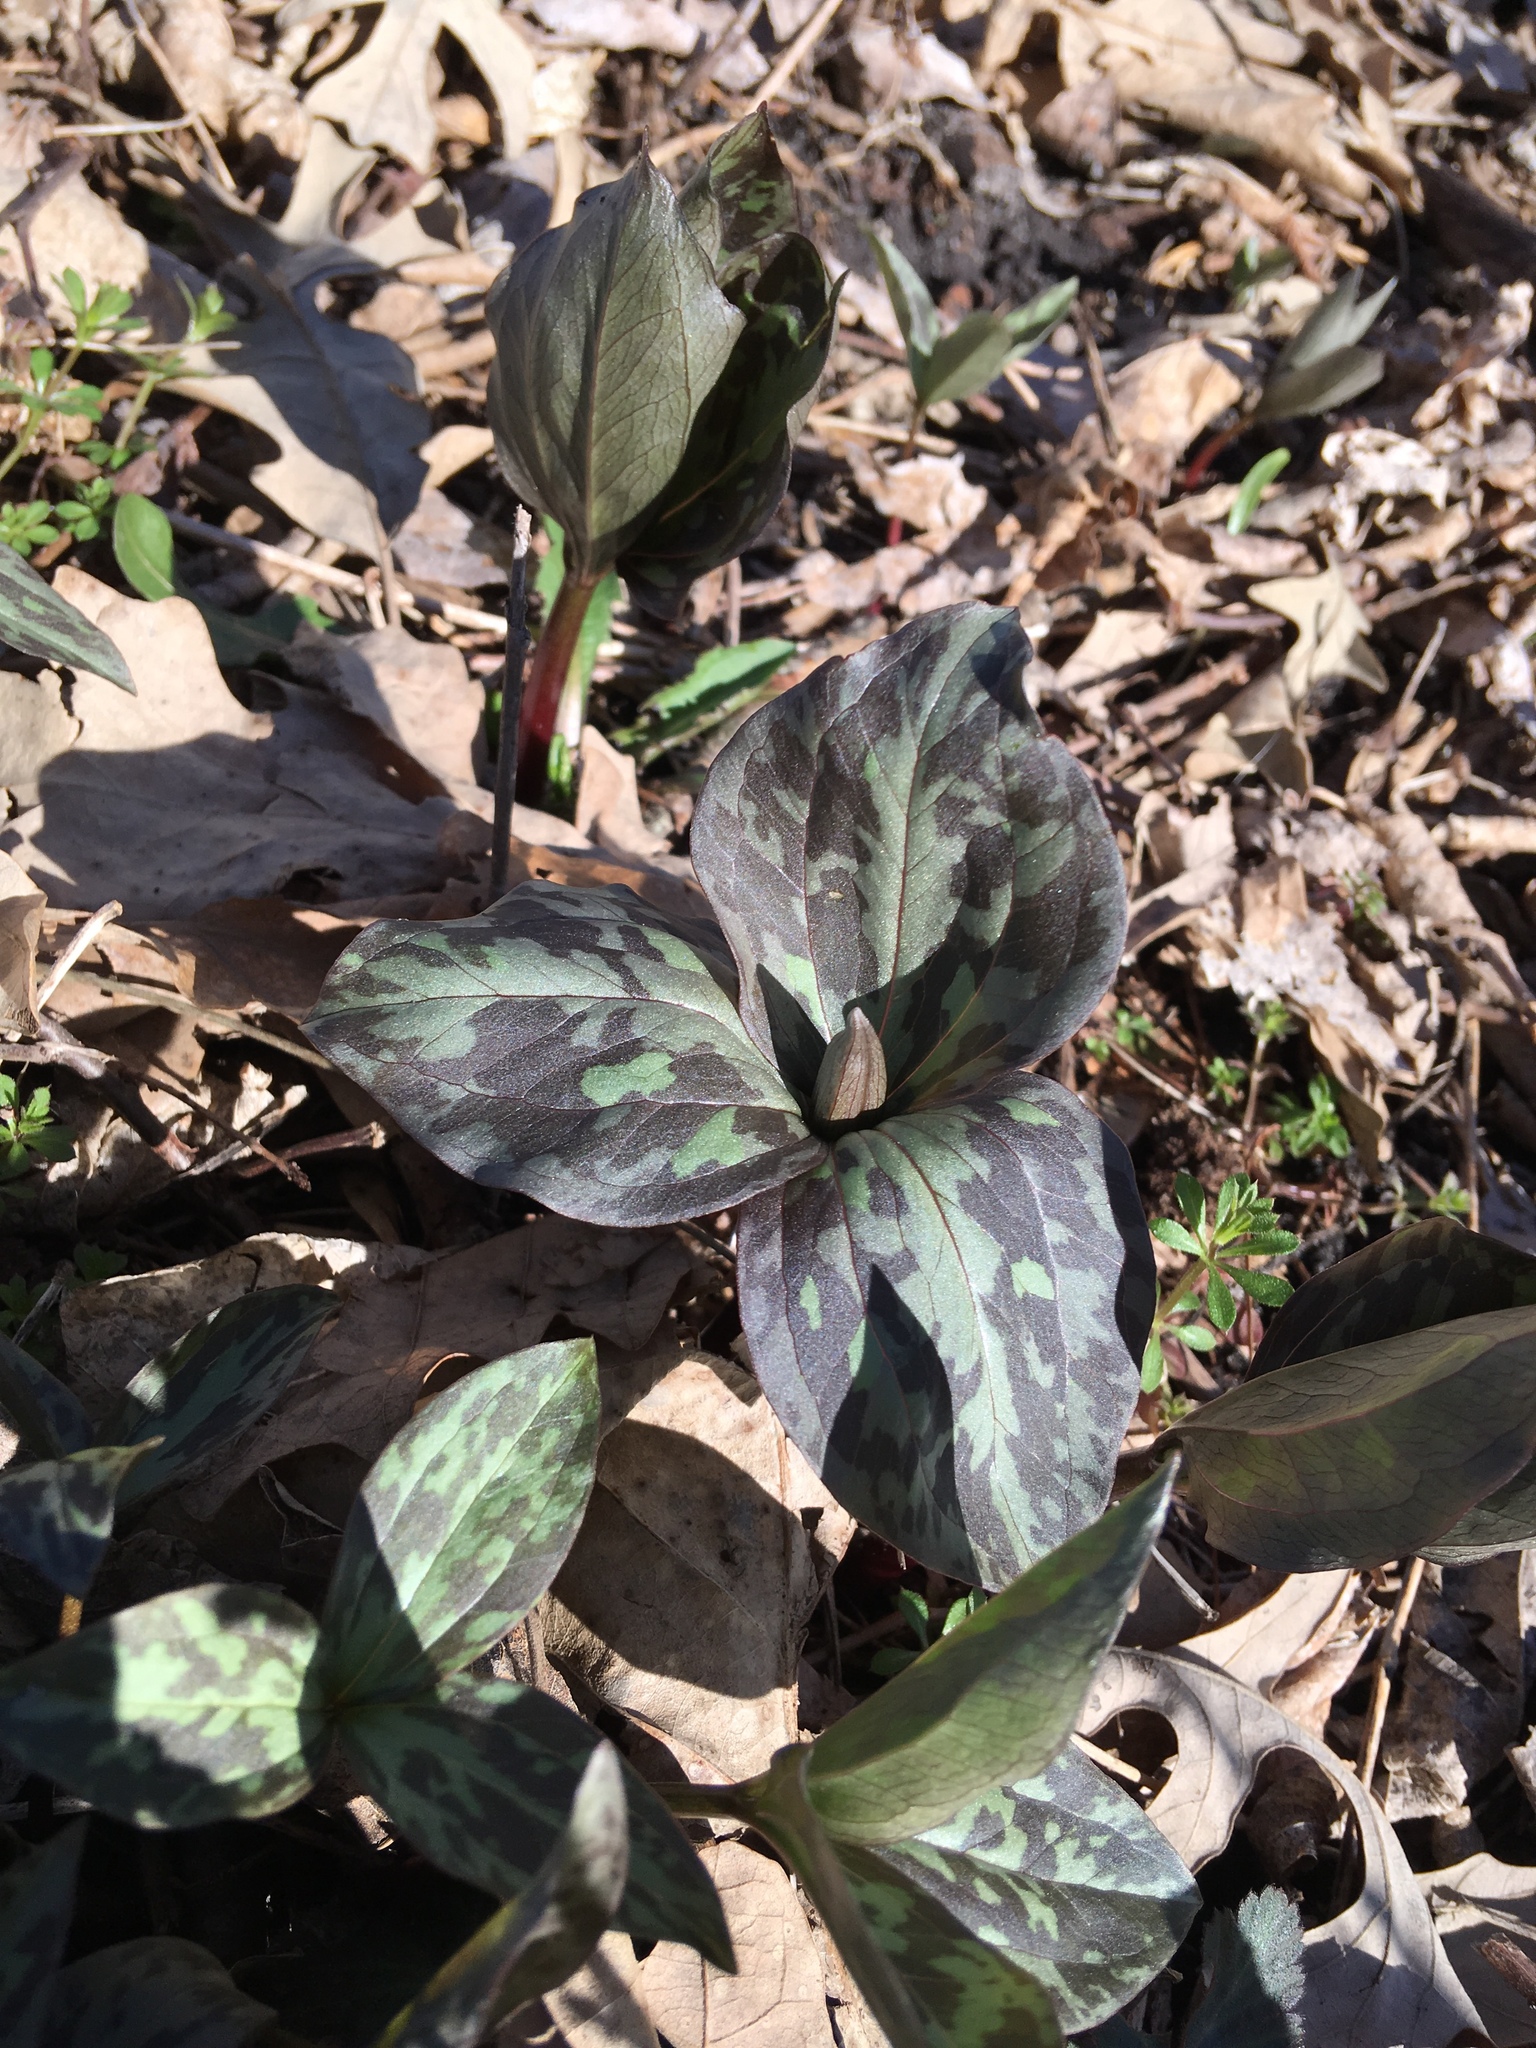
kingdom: Plantae
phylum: Tracheophyta
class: Liliopsida
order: Liliales
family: Melanthiaceae
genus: Trillium
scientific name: Trillium recurvatum
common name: Bloody butcher
